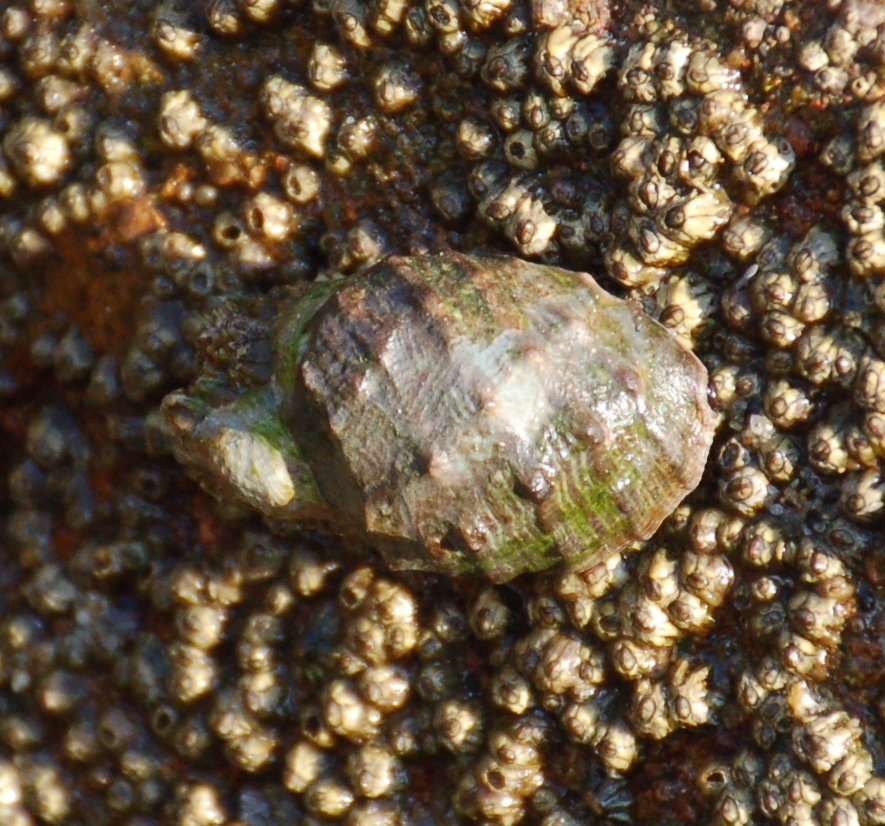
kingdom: Animalia
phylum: Mollusca
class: Gastropoda
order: Neogastropoda
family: Muricidae
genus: Plicopurpura
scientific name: Plicopurpura columellaris
